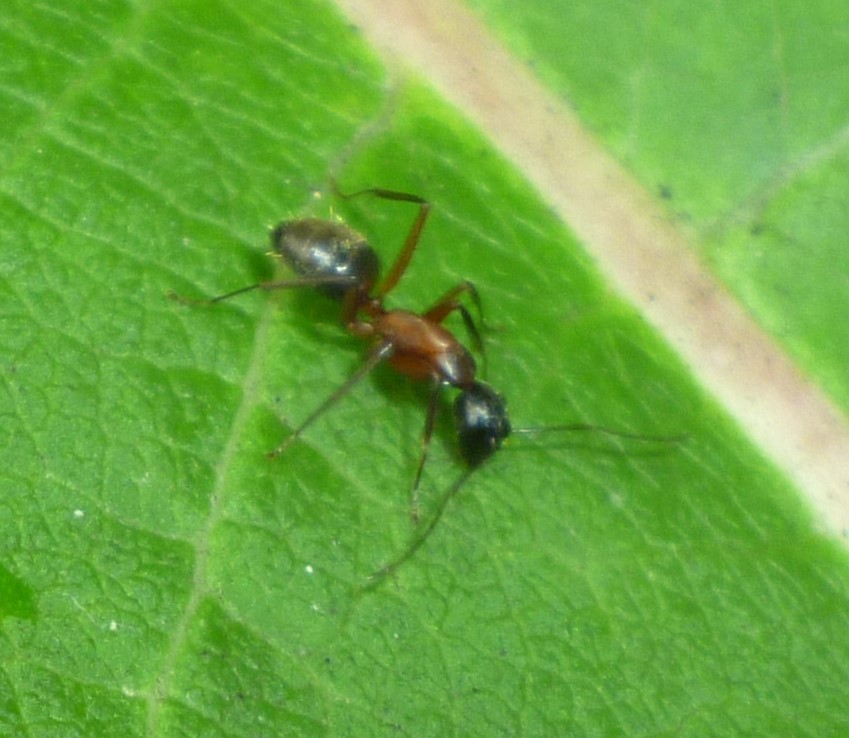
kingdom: Animalia
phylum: Arthropoda
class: Insecta
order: Hymenoptera
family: Formicidae
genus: Camponotus
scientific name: Camponotus chromaiodes
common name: Red carpenter ant
